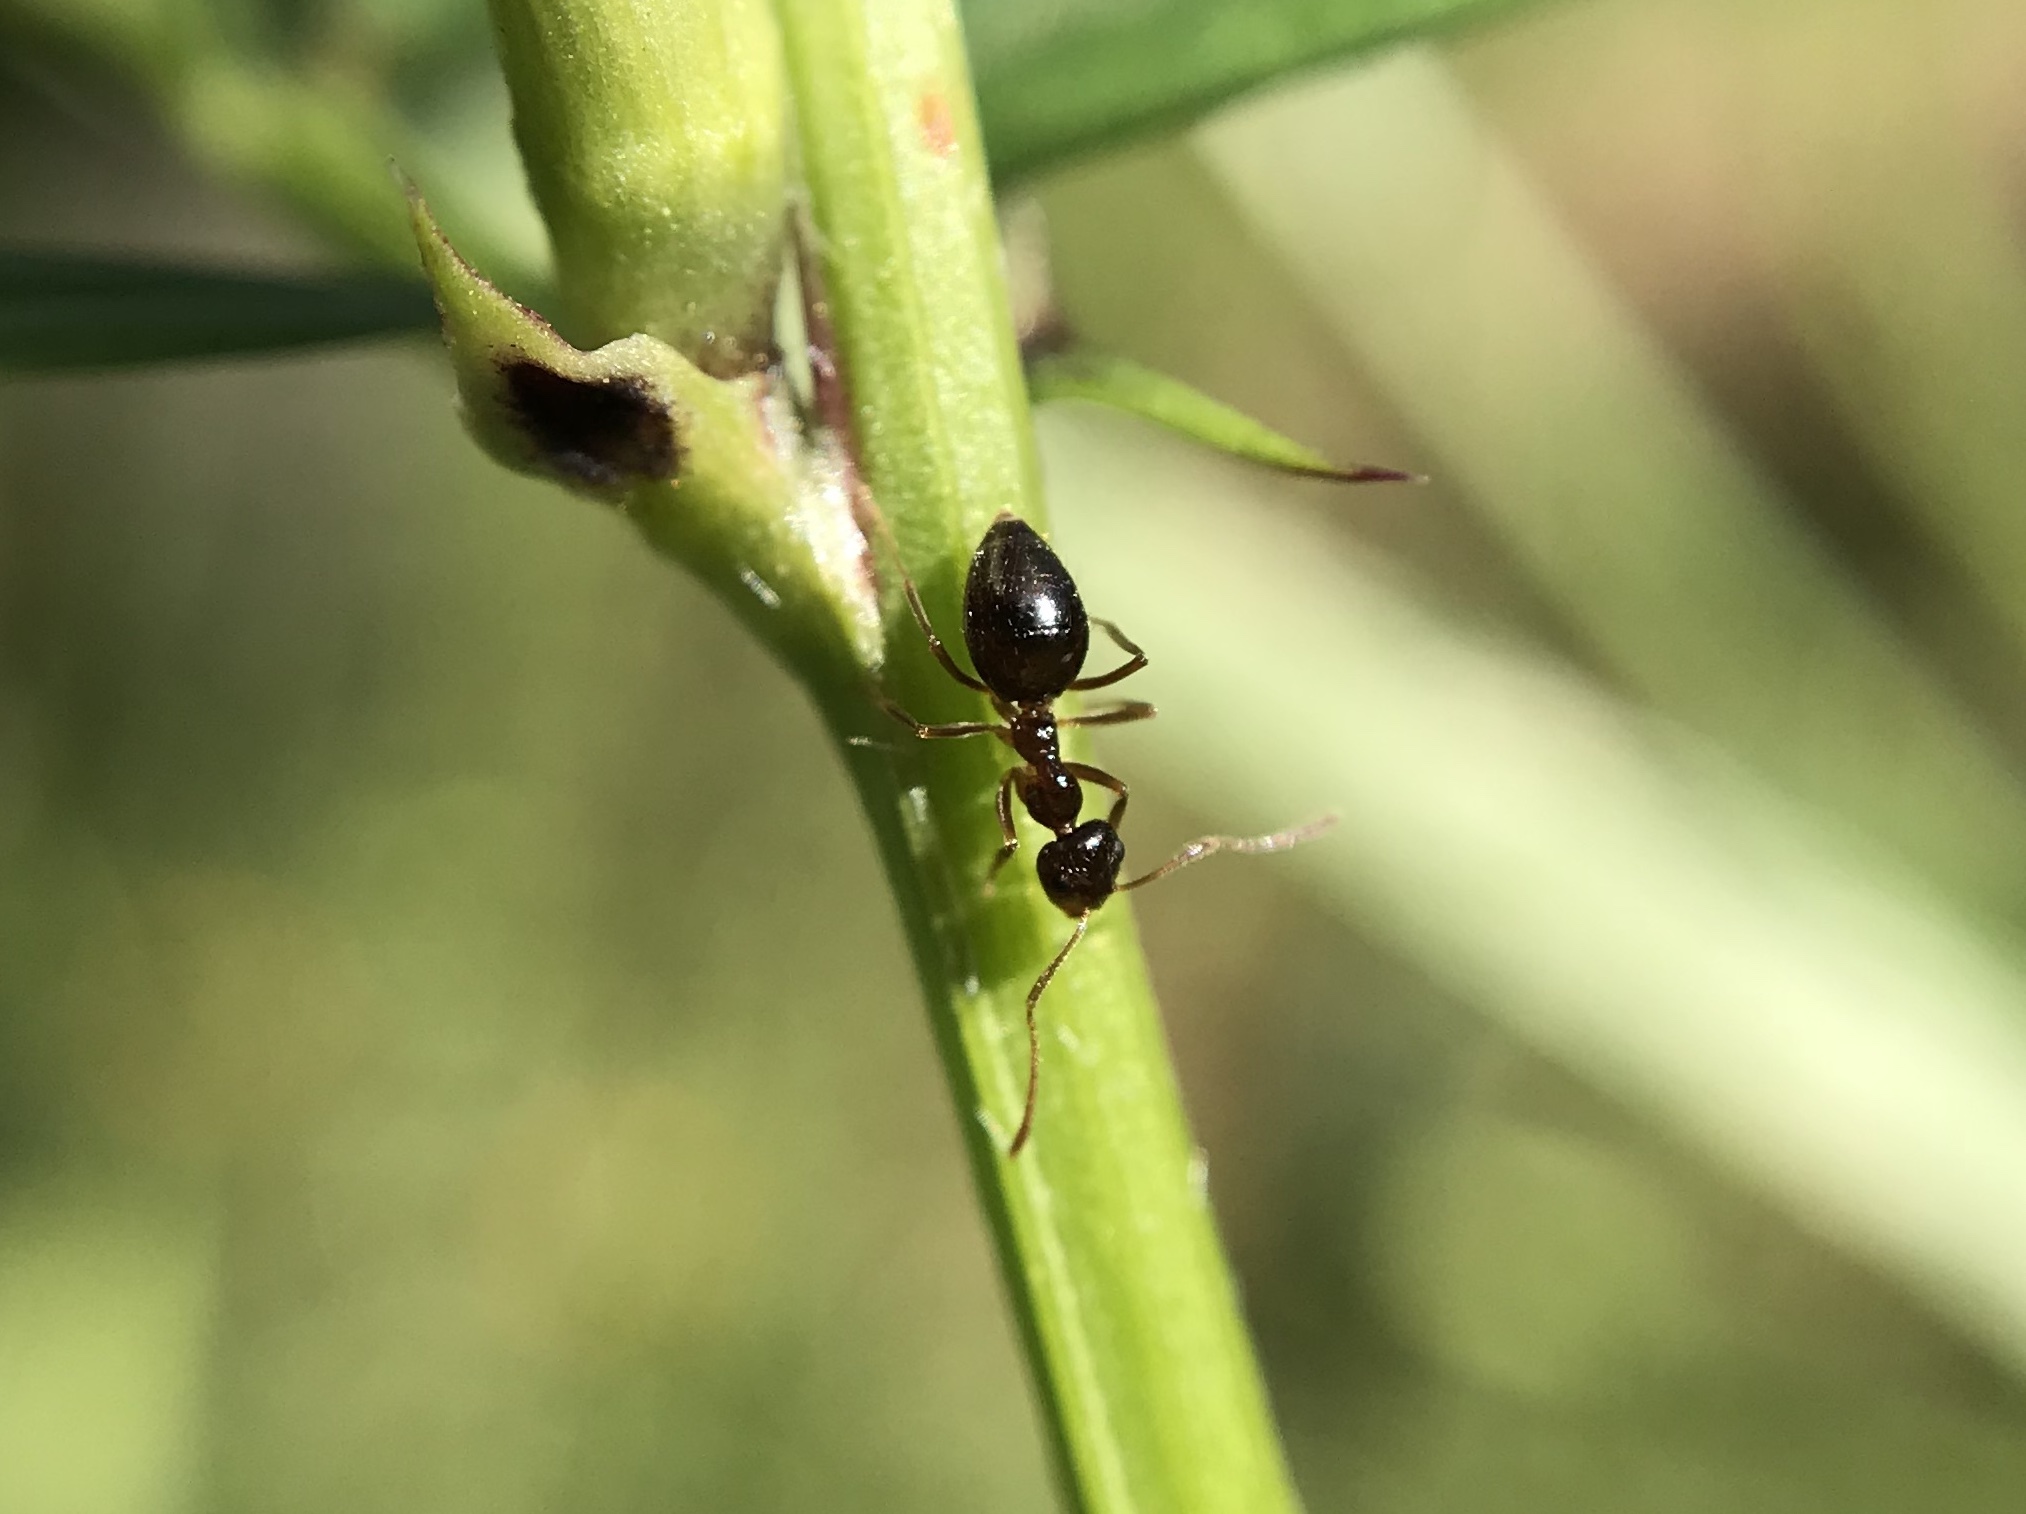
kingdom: Animalia
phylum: Arthropoda
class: Insecta
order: Hymenoptera
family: Formicidae
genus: Prenolepis
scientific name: Prenolepis imparis
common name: Small honey ant
